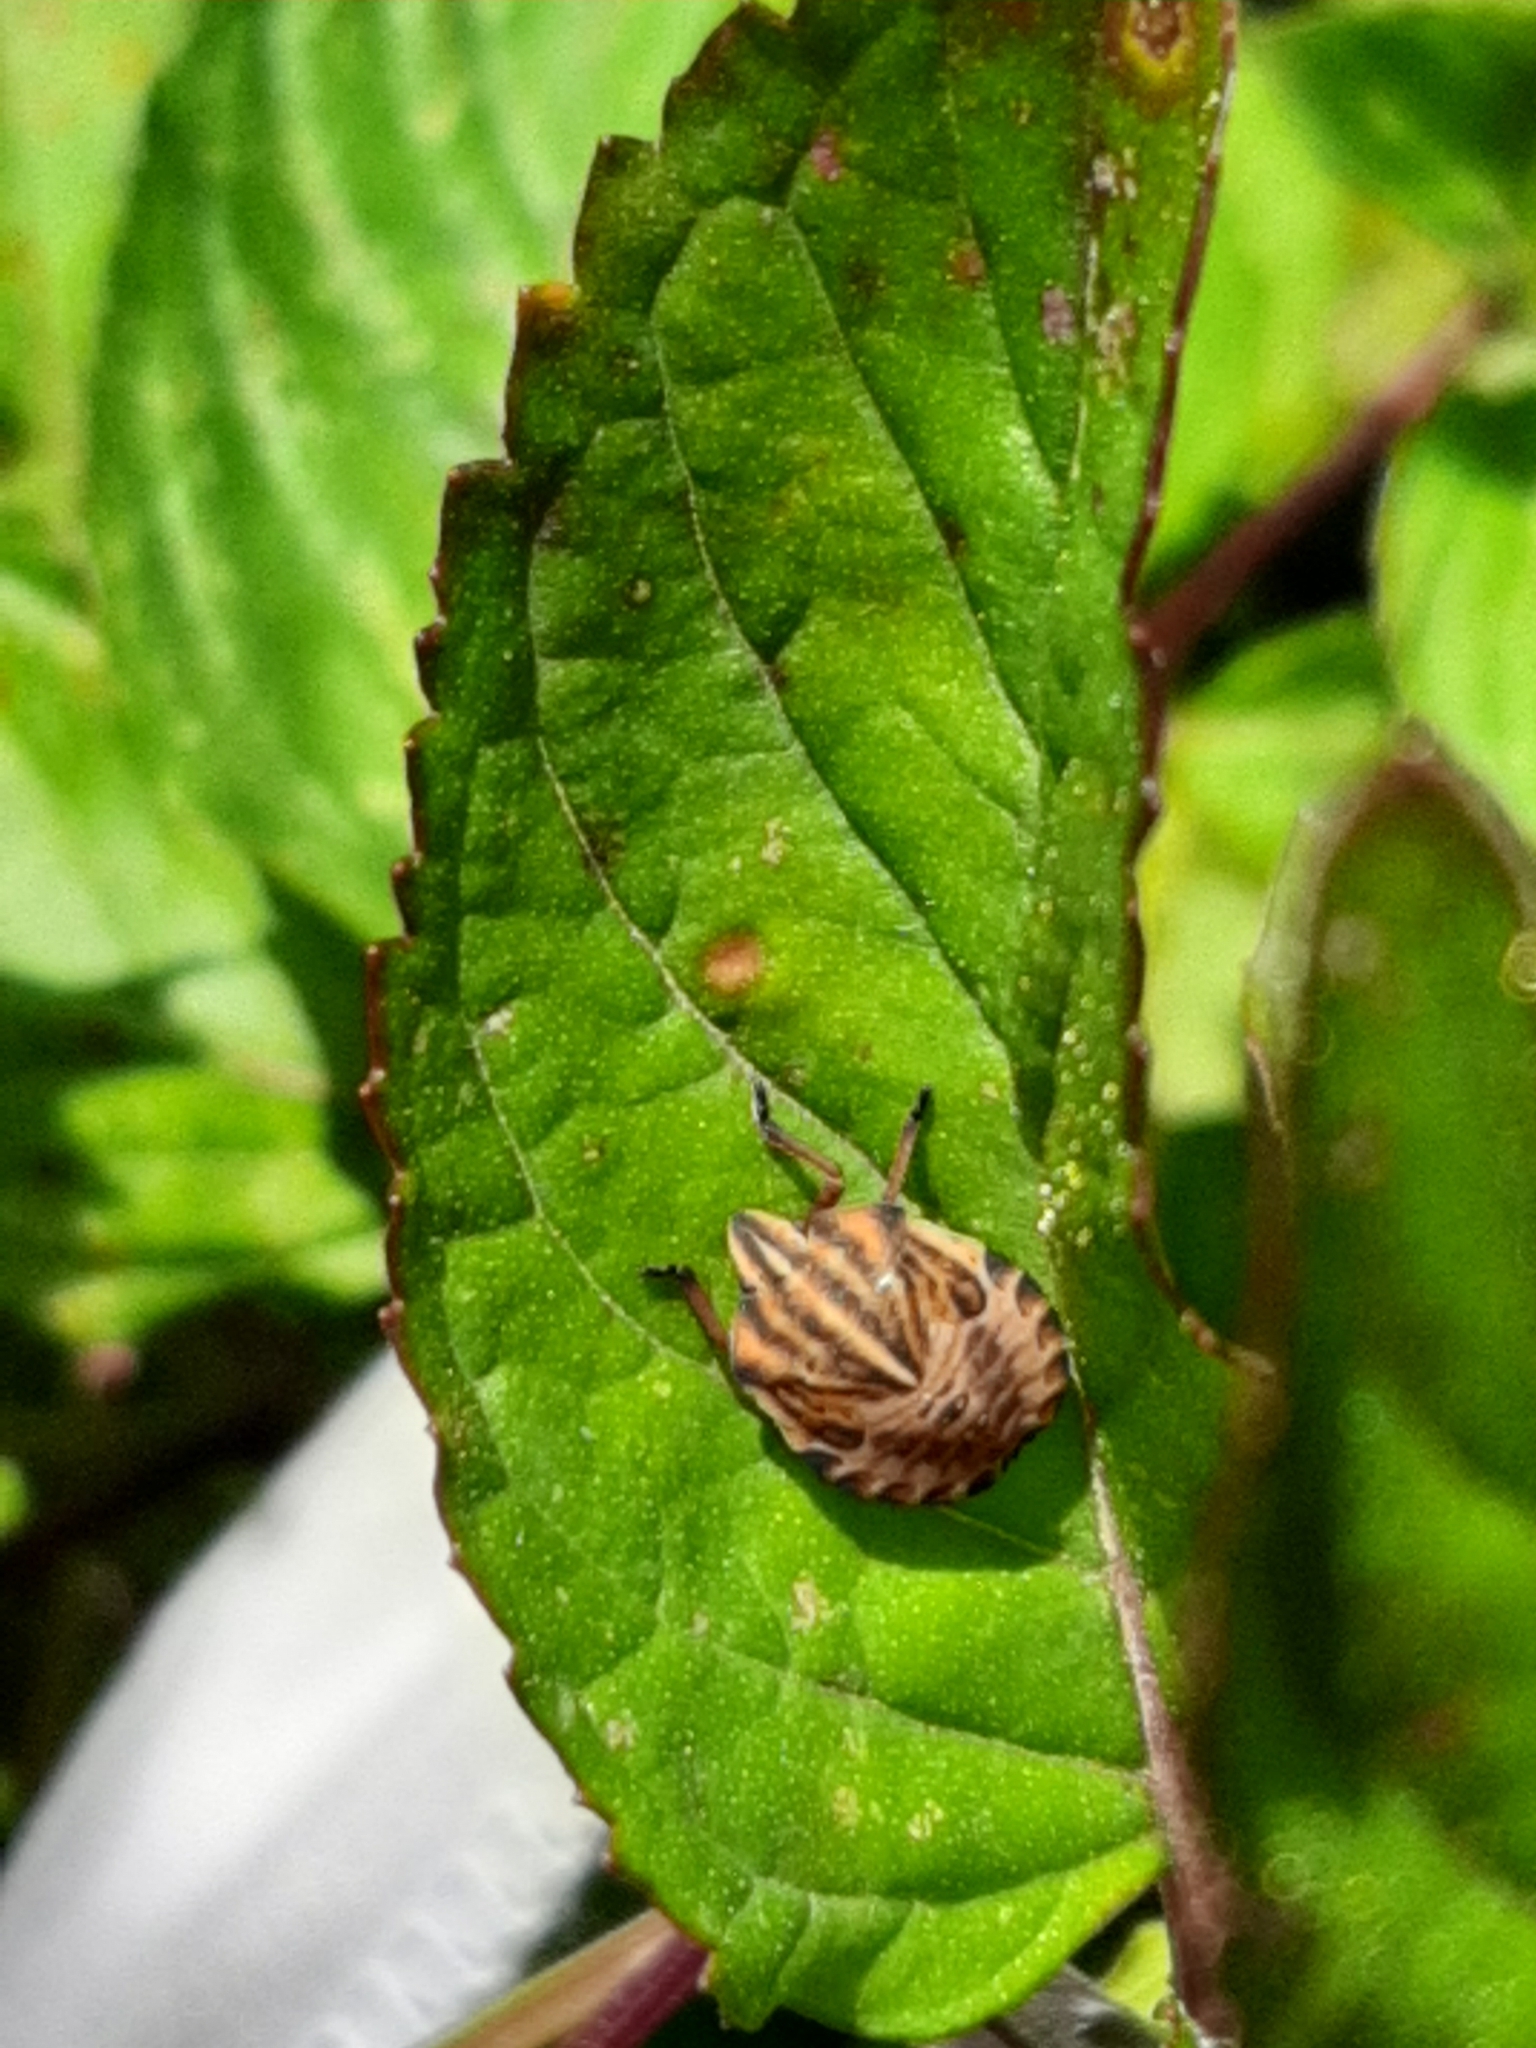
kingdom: Animalia
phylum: Arthropoda
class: Insecta
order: Hemiptera
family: Pentatomidae
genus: Graphosoma
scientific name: Graphosoma italicum
